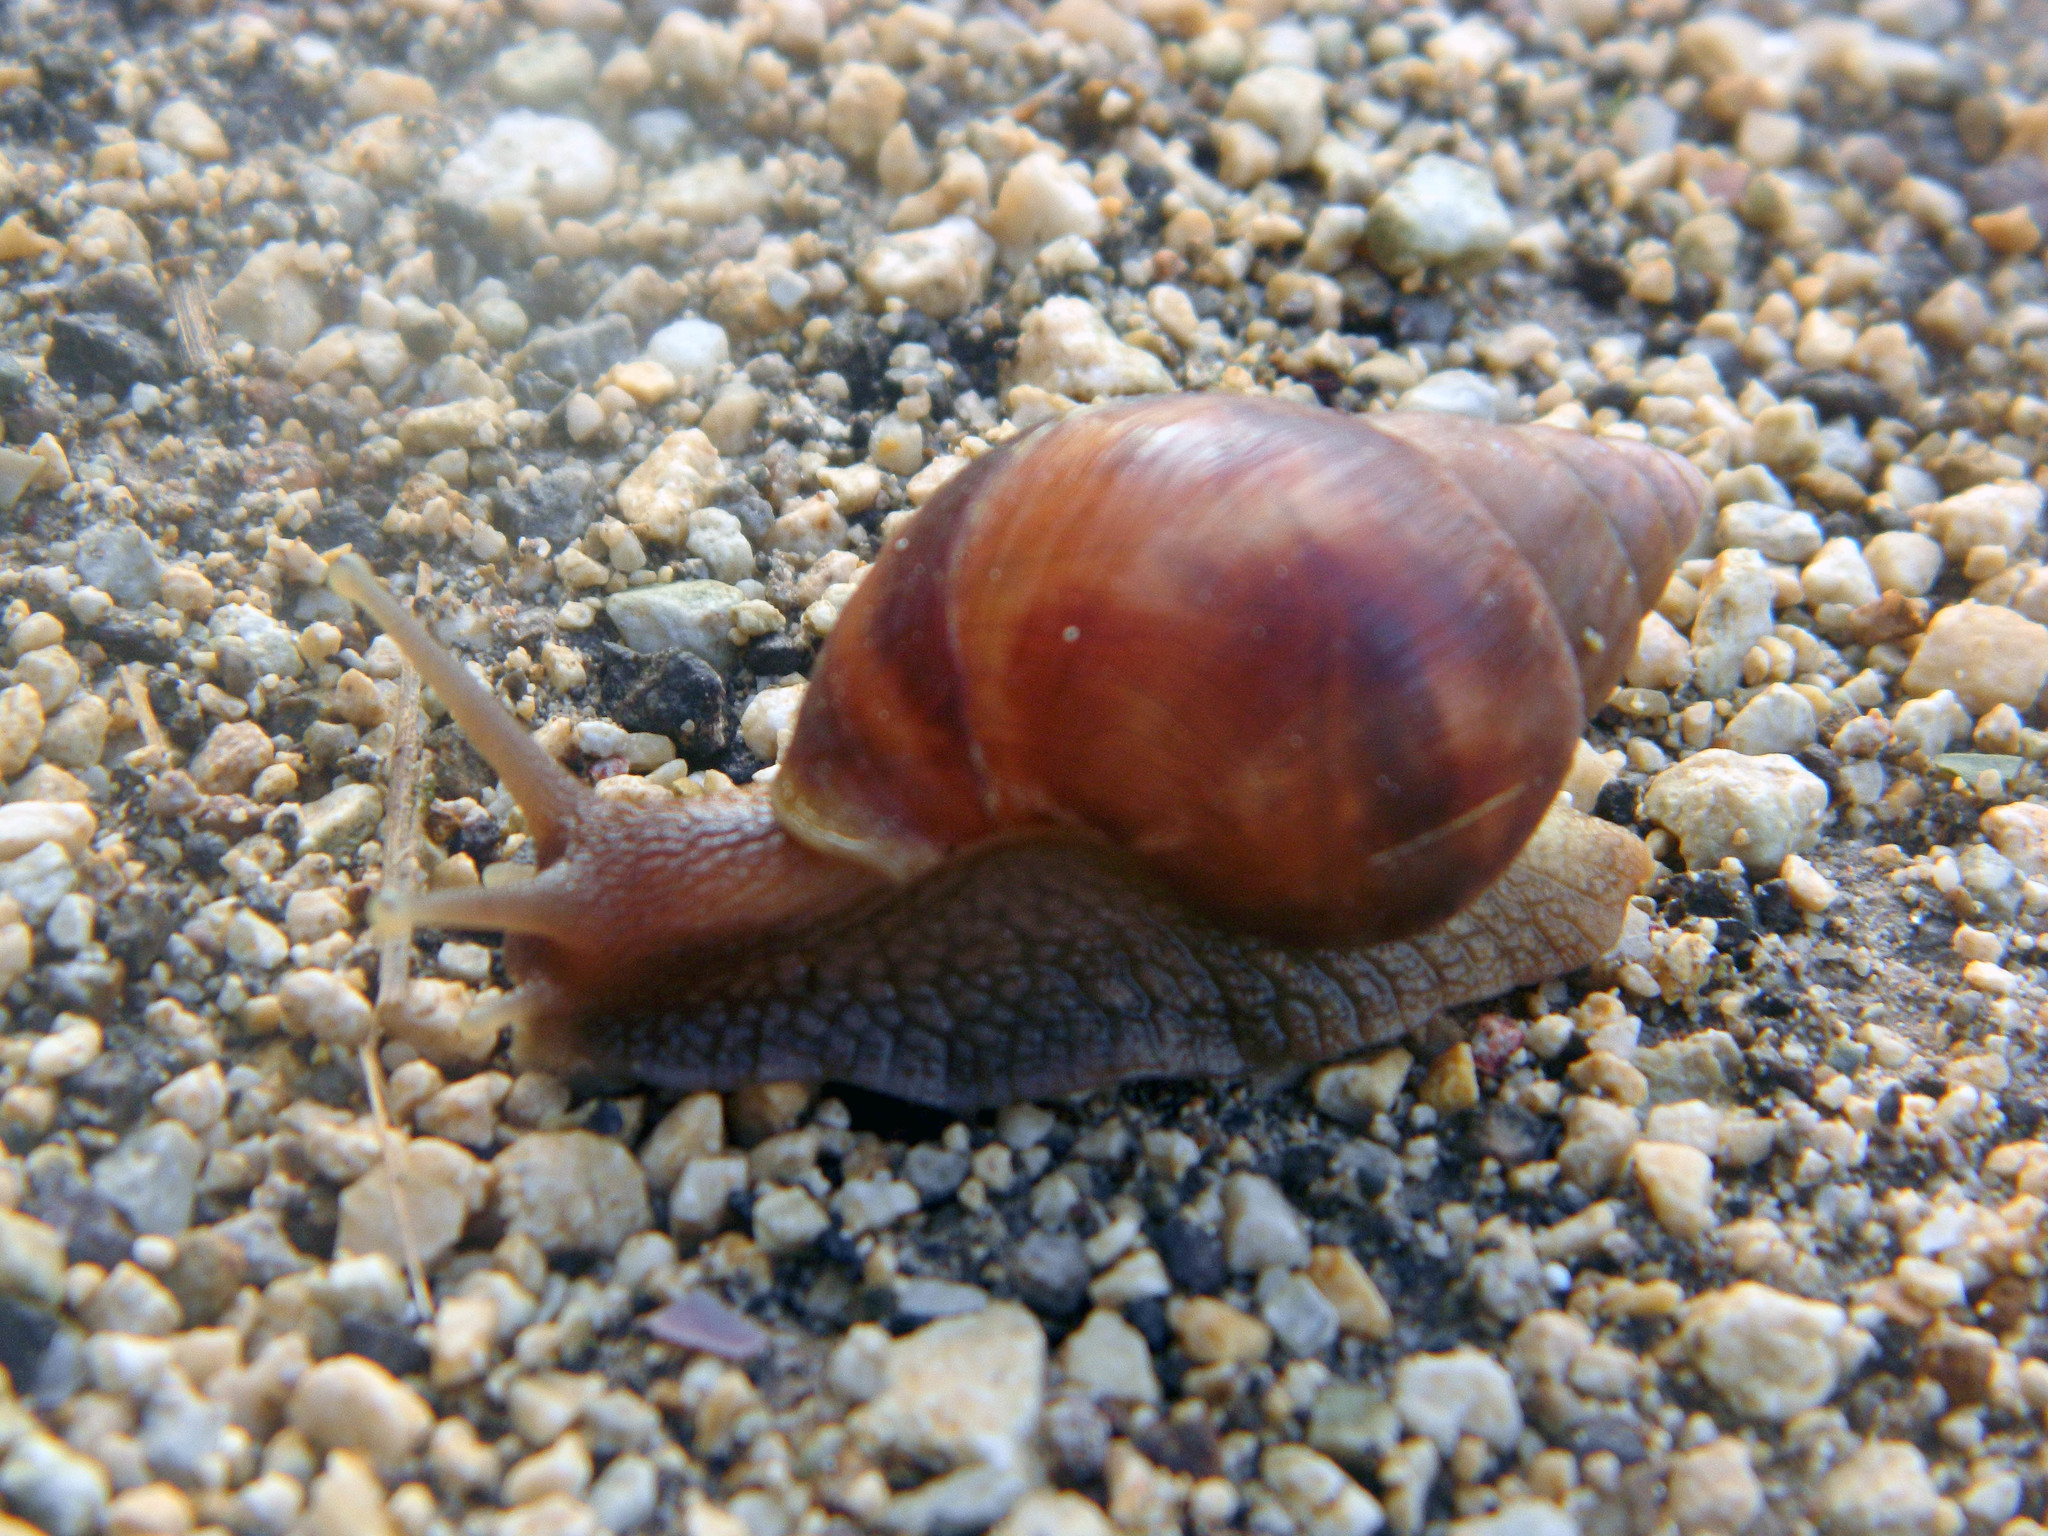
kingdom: Animalia
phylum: Mollusca
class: Gastropoda
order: Stylommatophora
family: Achatinidae
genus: Lissachatina
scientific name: Lissachatina fulica
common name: Giant african snail
